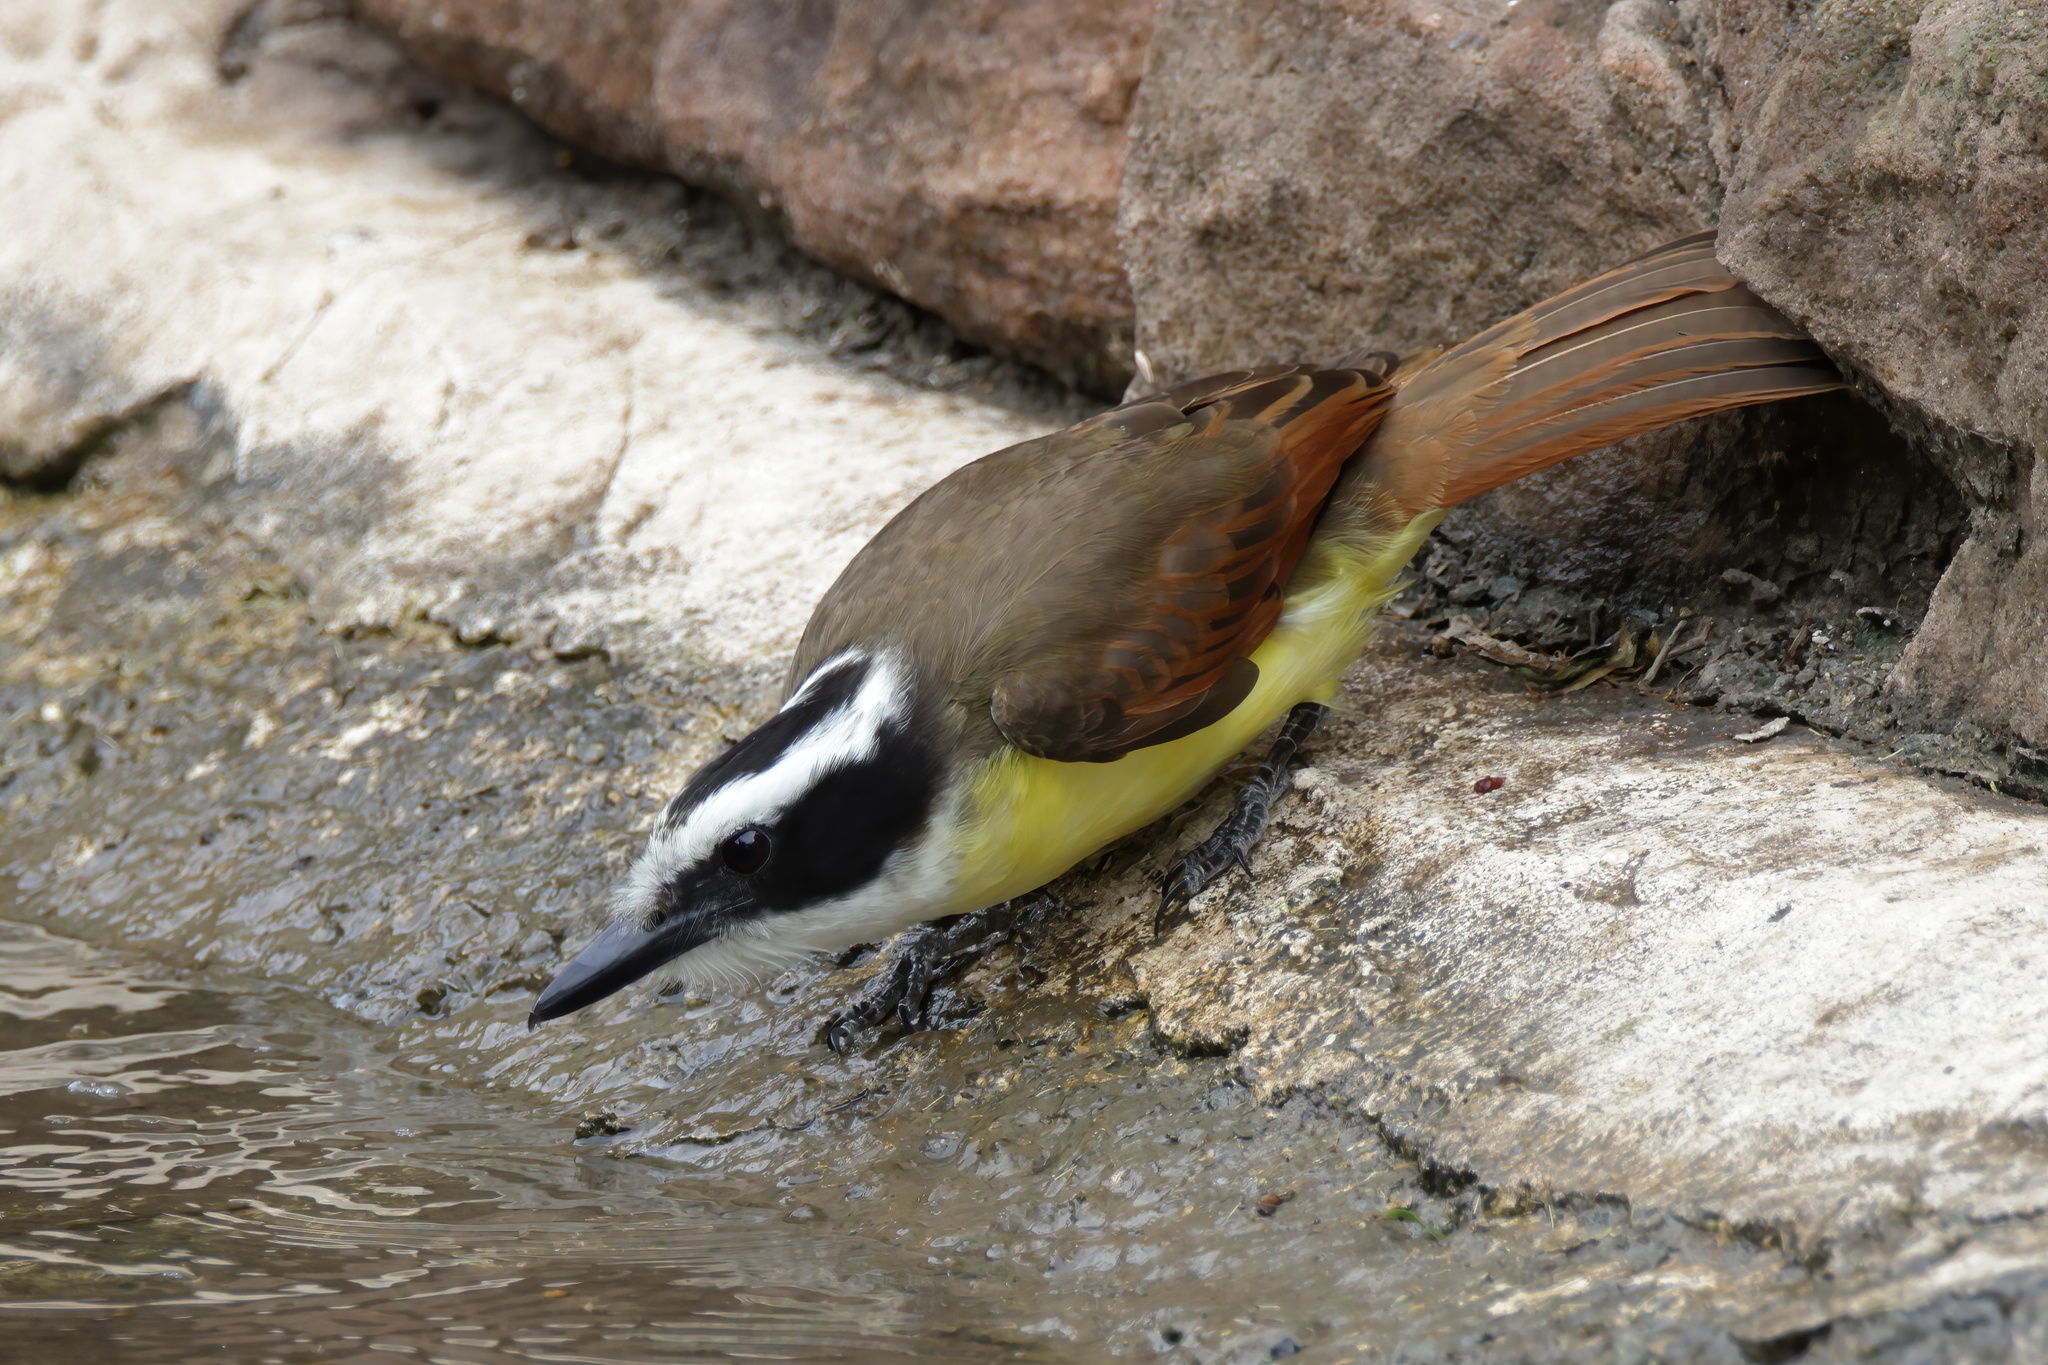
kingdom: Animalia
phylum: Chordata
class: Aves
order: Passeriformes
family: Tyrannidae
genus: Pitangus
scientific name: Pitangus sulphuratus
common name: Great kiskadee
